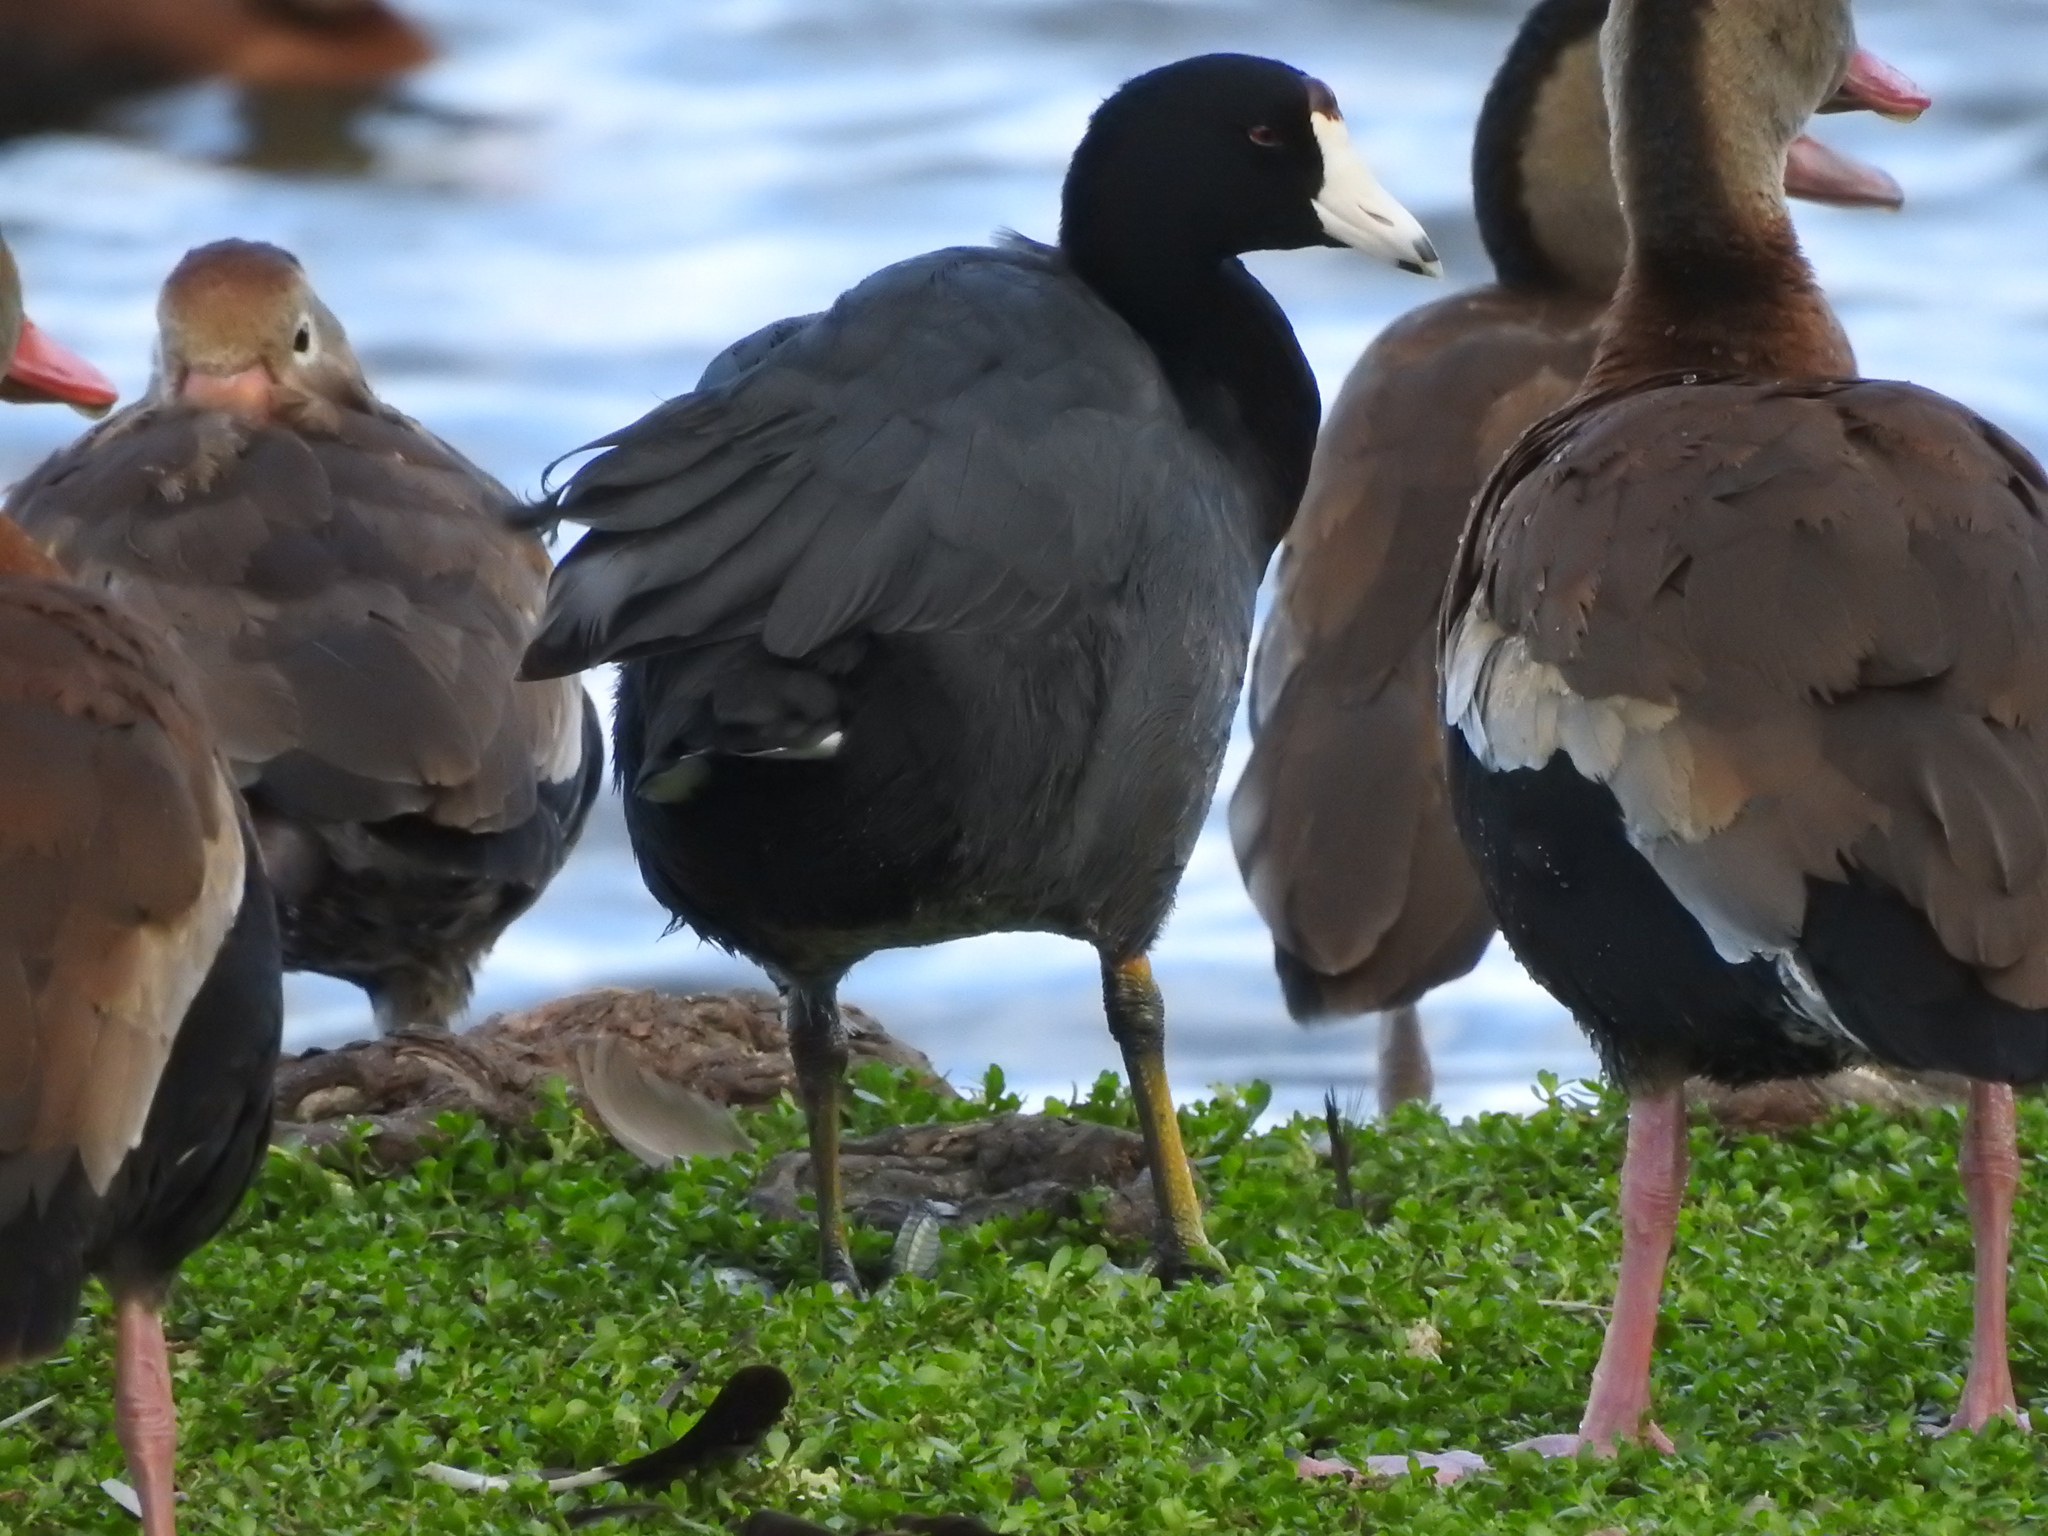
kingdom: Animalia
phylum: Chordata
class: Aves
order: Gruiformes
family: Rallidae
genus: Fulica
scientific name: Fulica americana
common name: American coot
